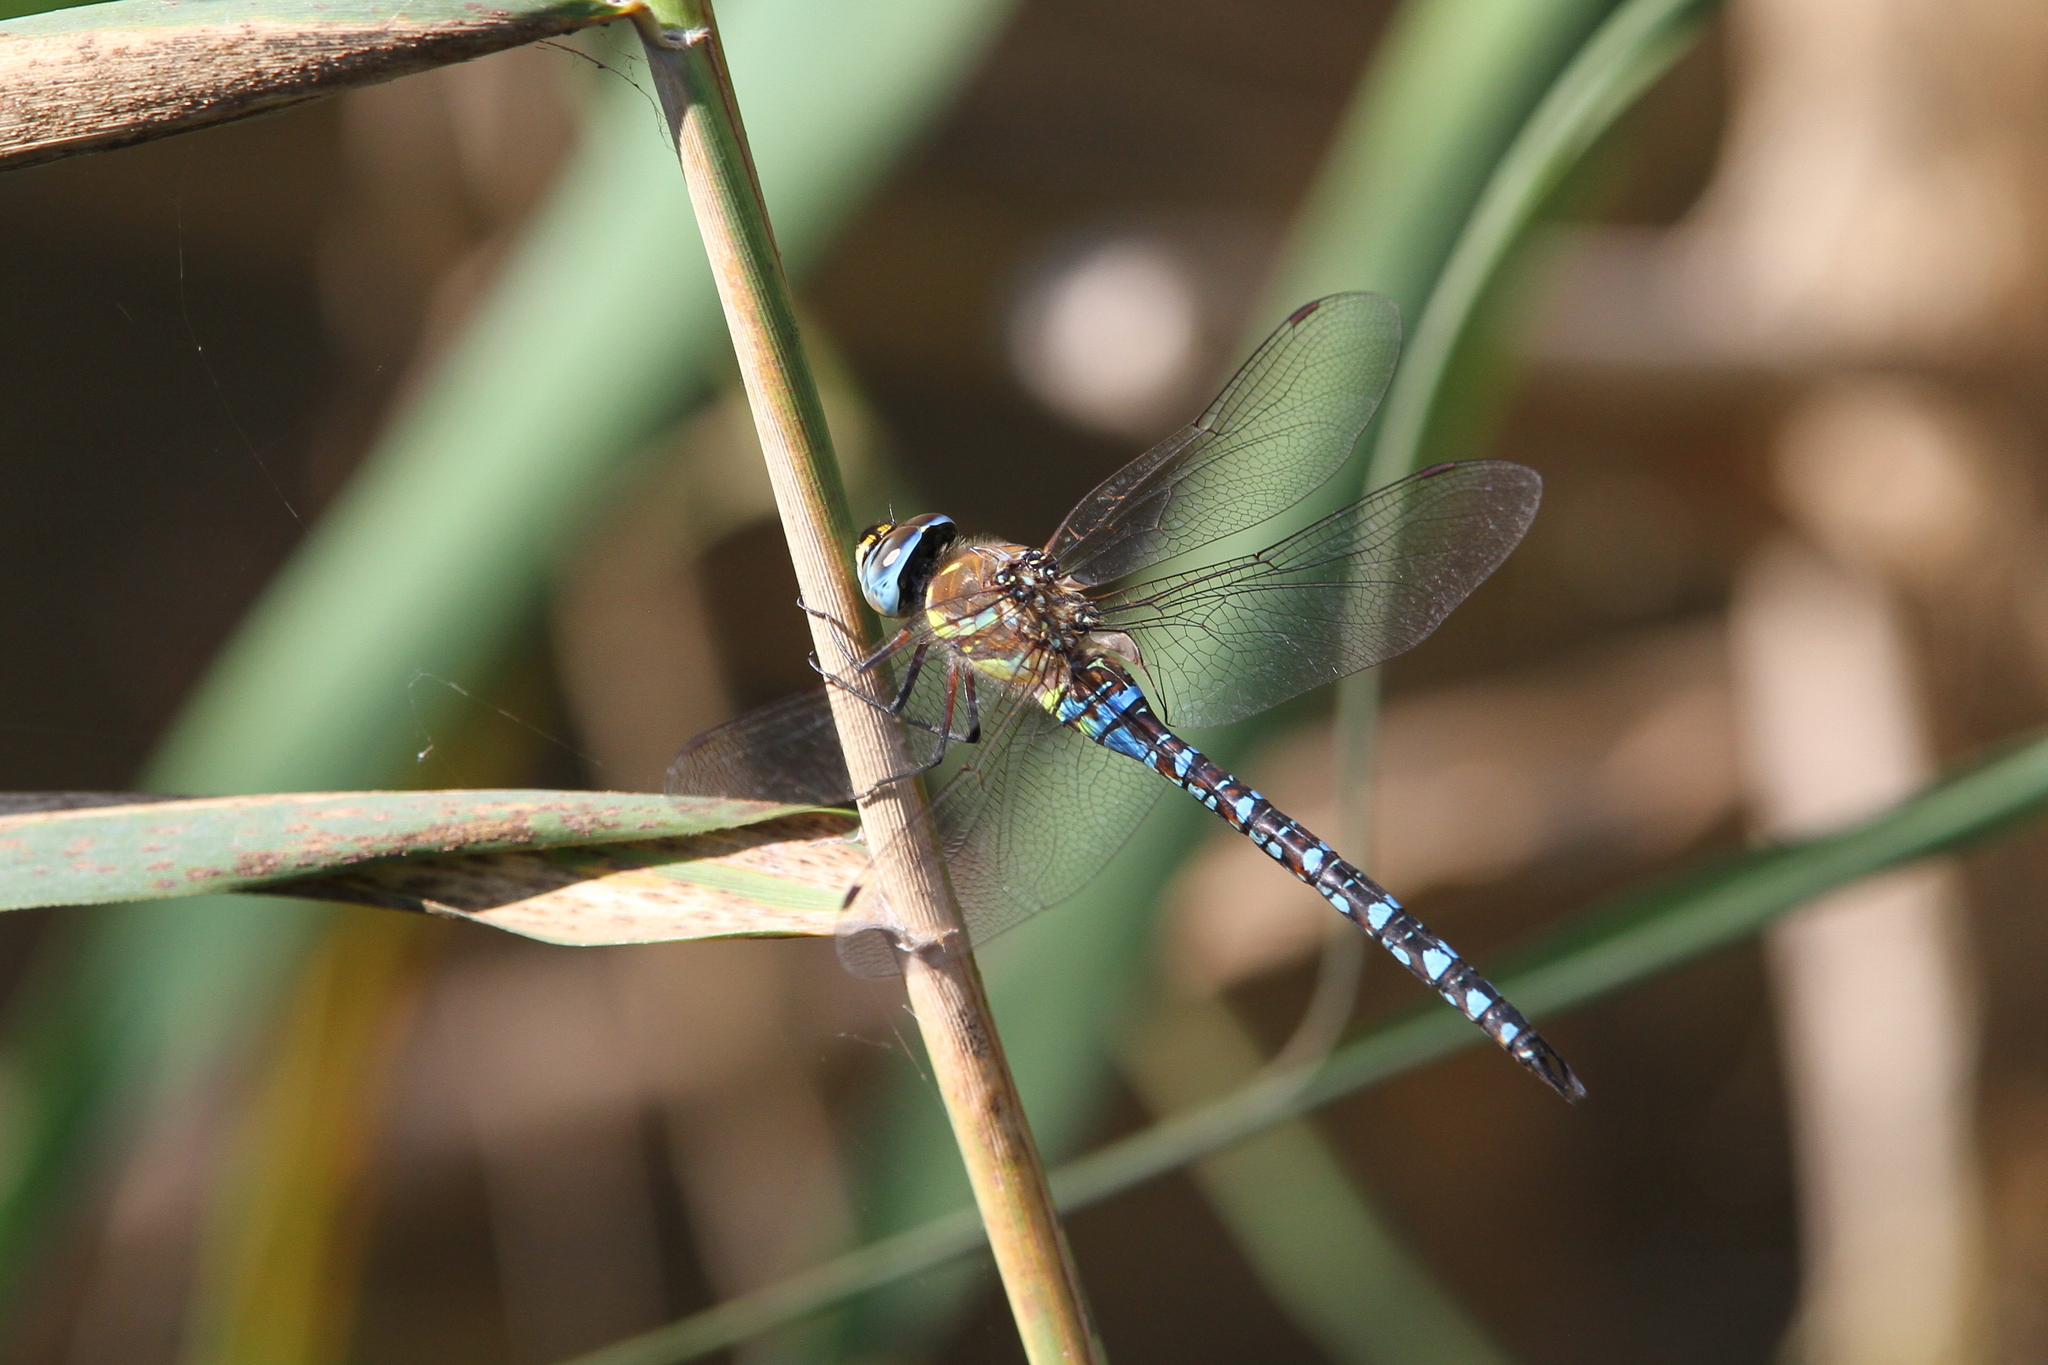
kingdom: Animalia
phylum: Arthropoda
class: Insecta
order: Odonata
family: Aeshnidae
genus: Aeshna
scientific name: Aeshna mixta
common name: Migrant hawker
